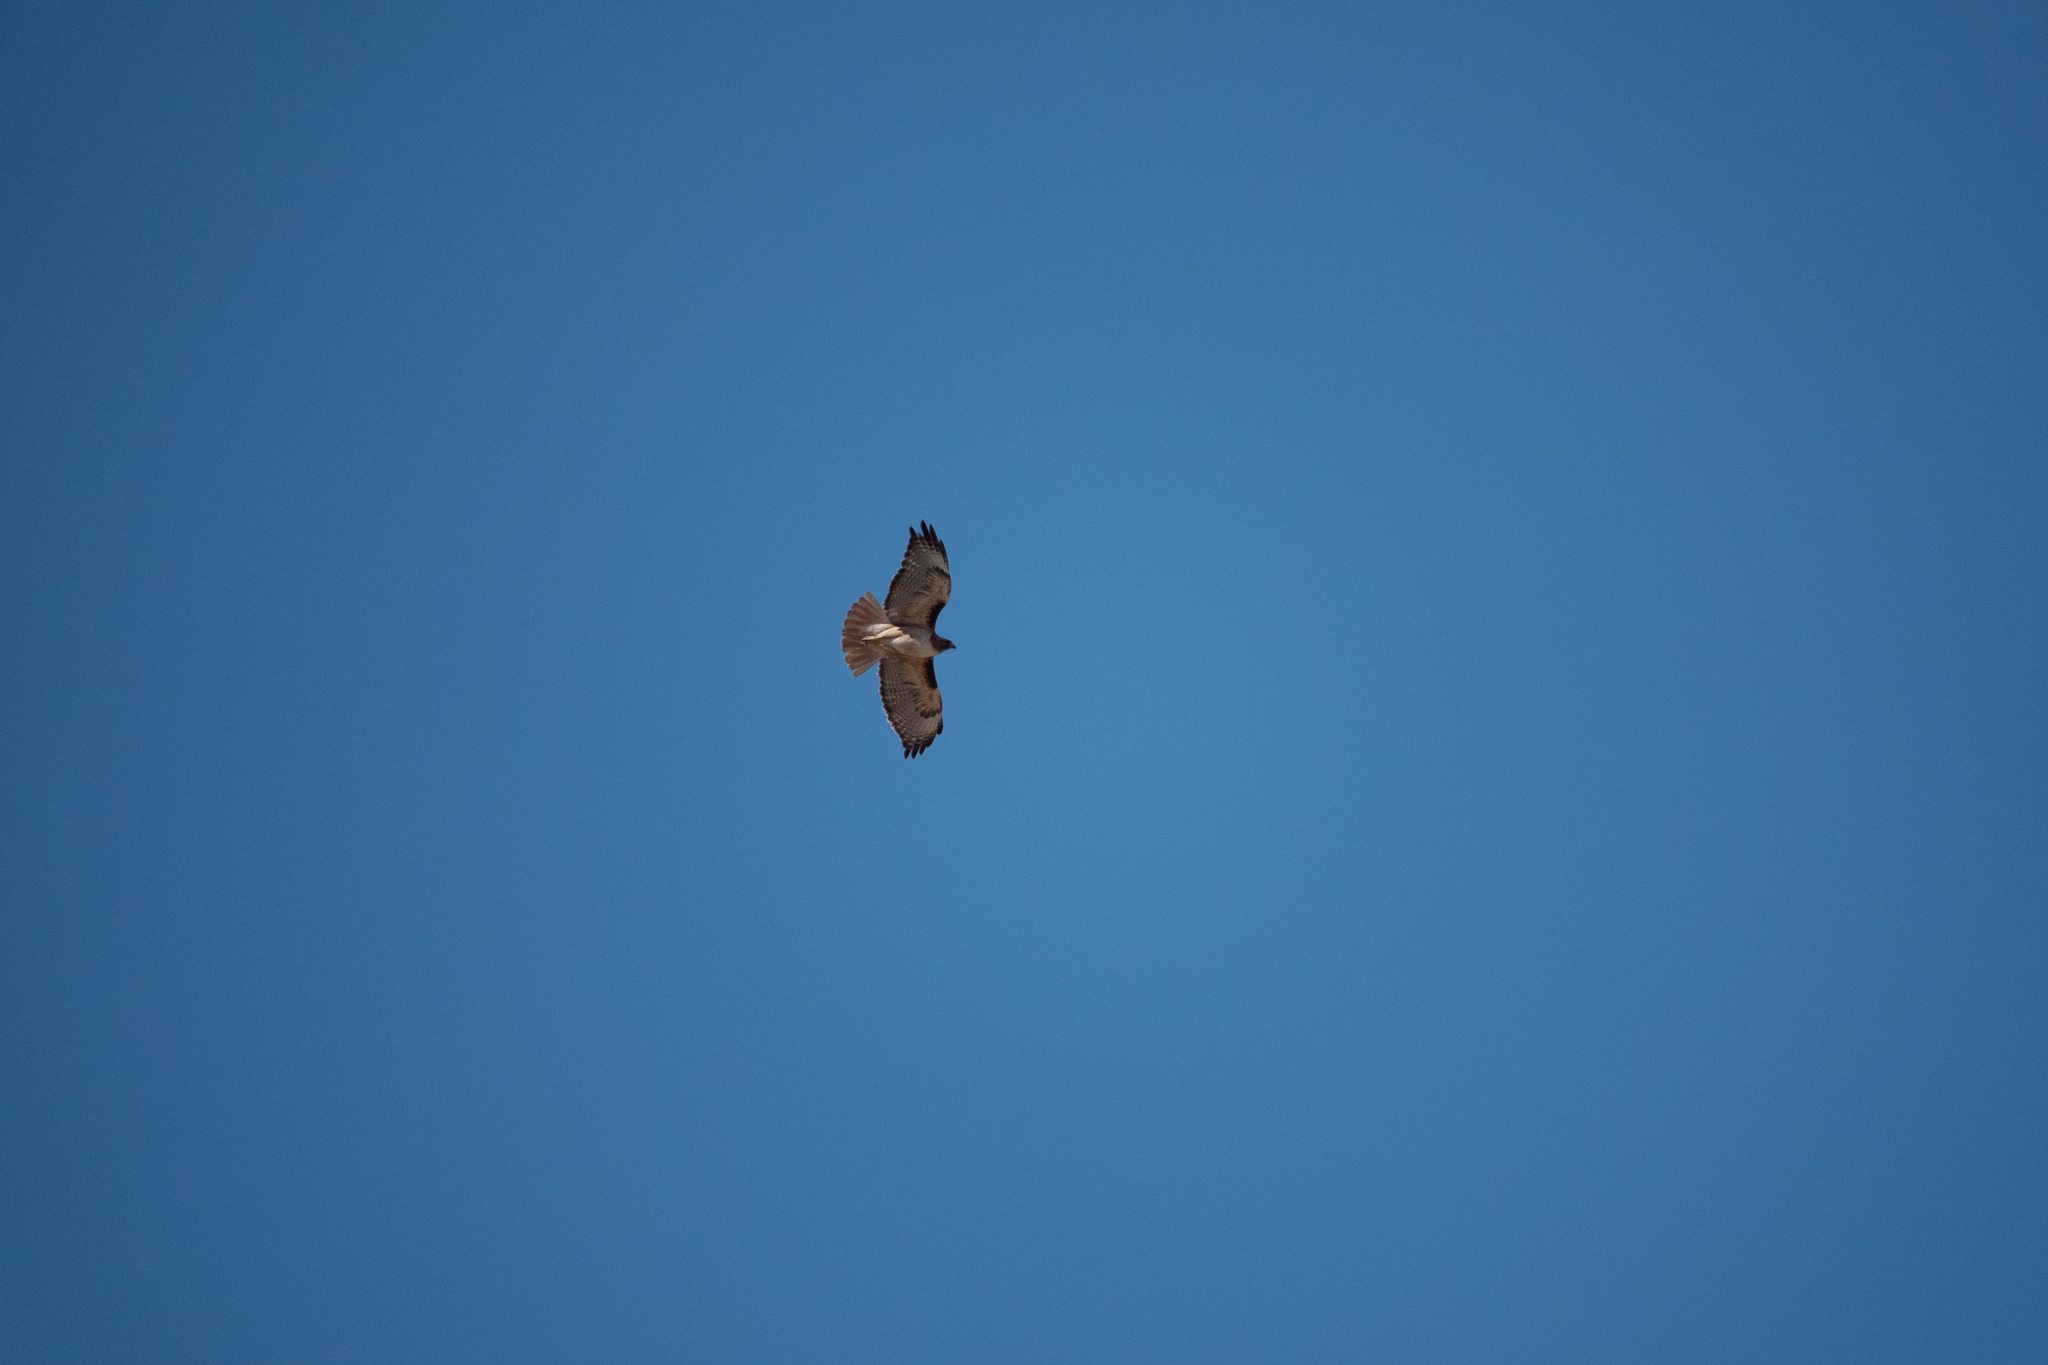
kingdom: Animalia
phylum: Chordata
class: Aves
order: Accipitriformes
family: Accipitridae
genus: Buteo
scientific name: Buteo jamaicensis
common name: Red-tailed hawk
